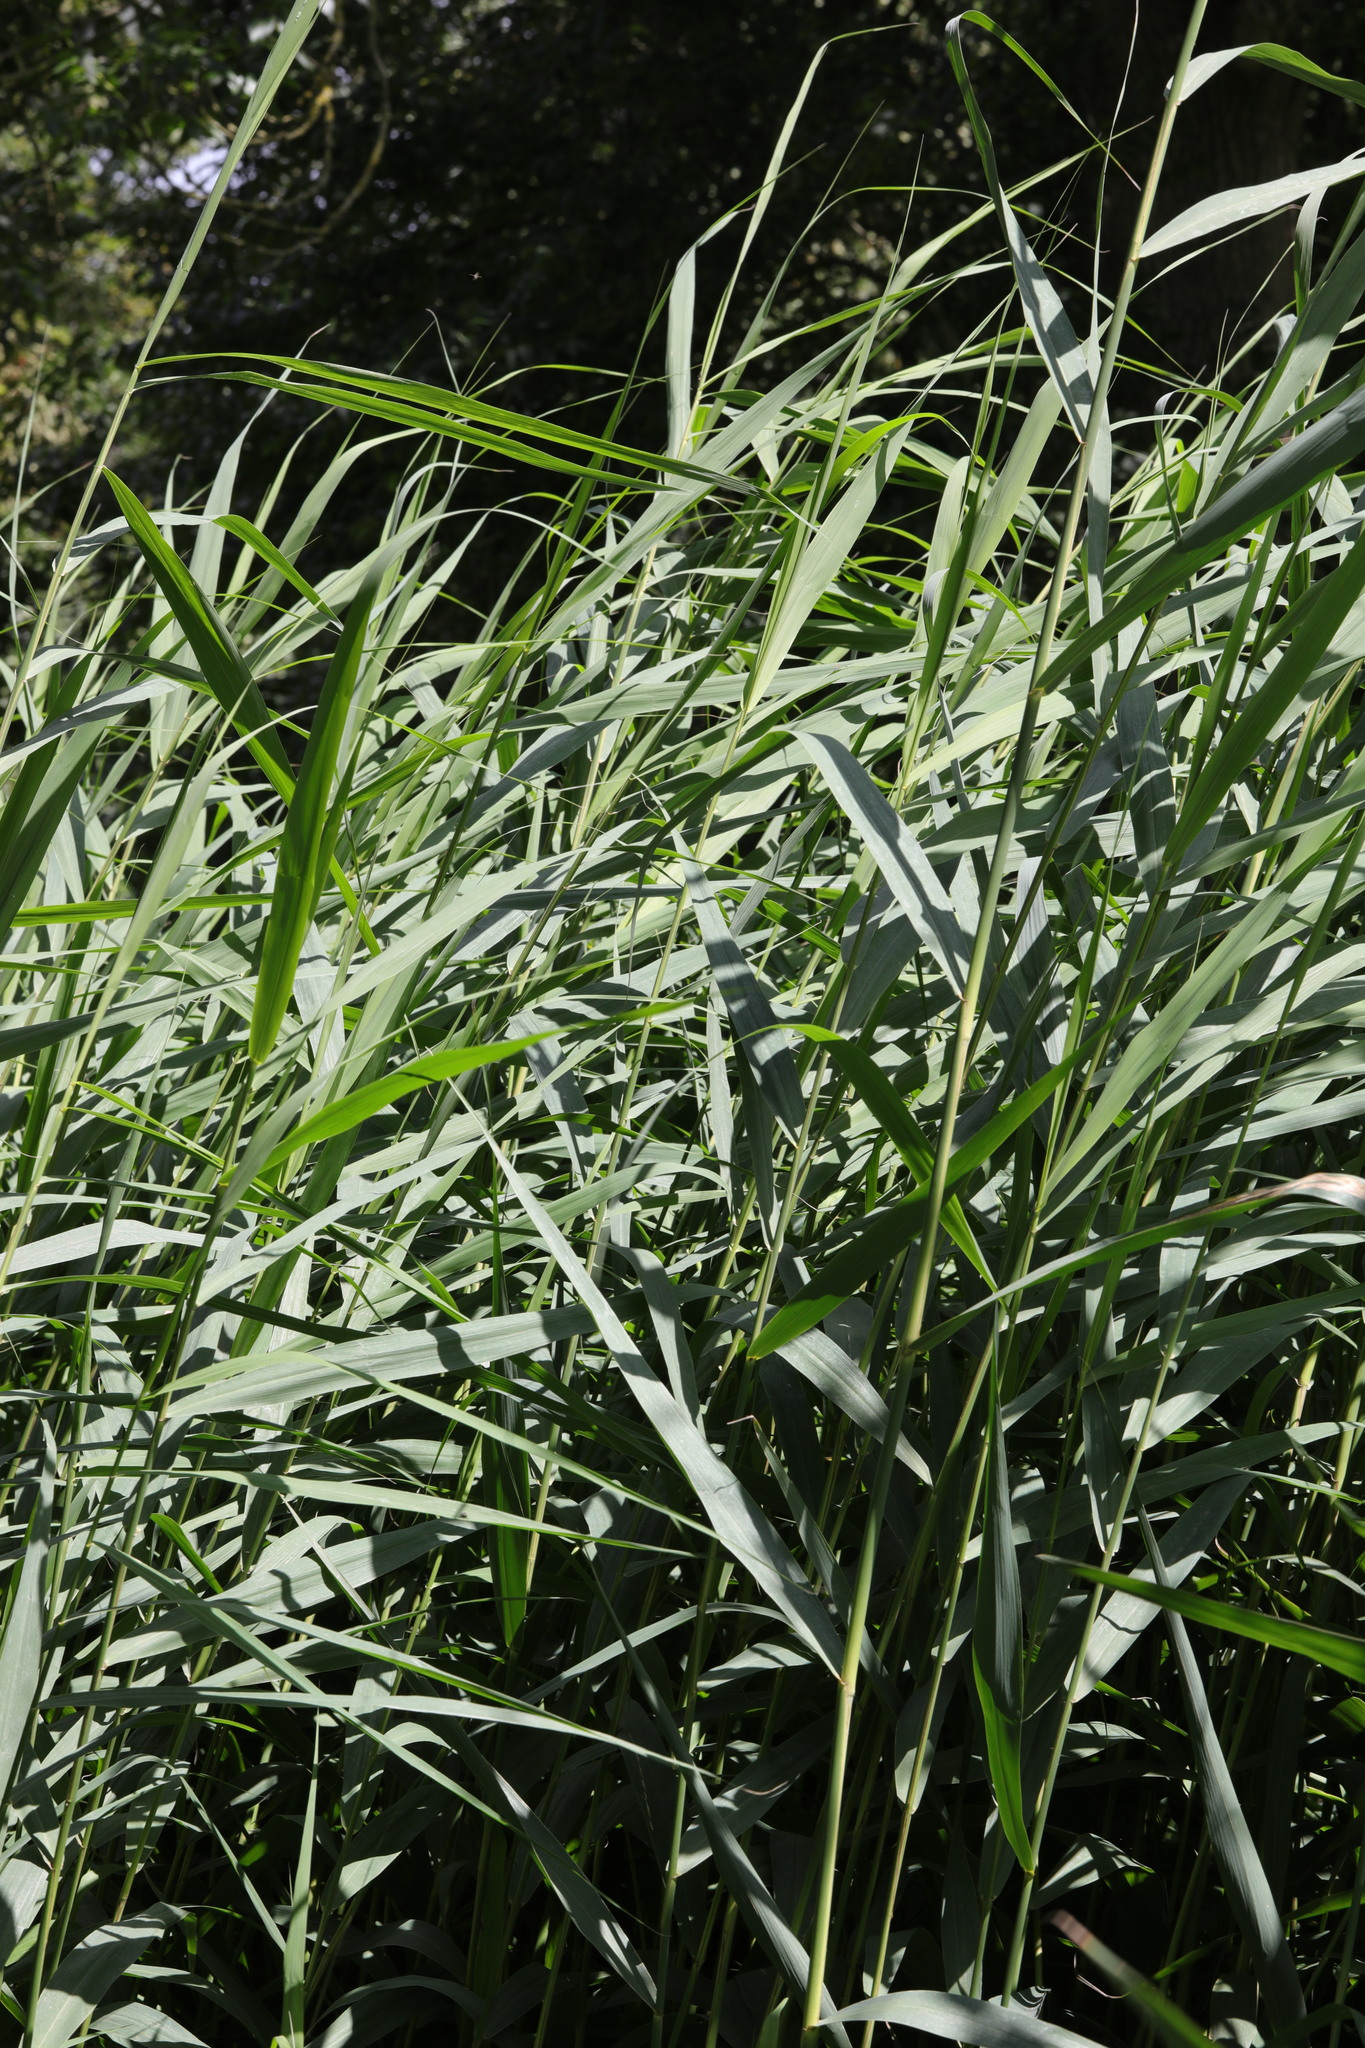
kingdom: Plantae
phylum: Tracheophyta
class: Liliopsida
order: Poales
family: Poaceae
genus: Phragmites
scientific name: Phragmites australis
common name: Common reed
